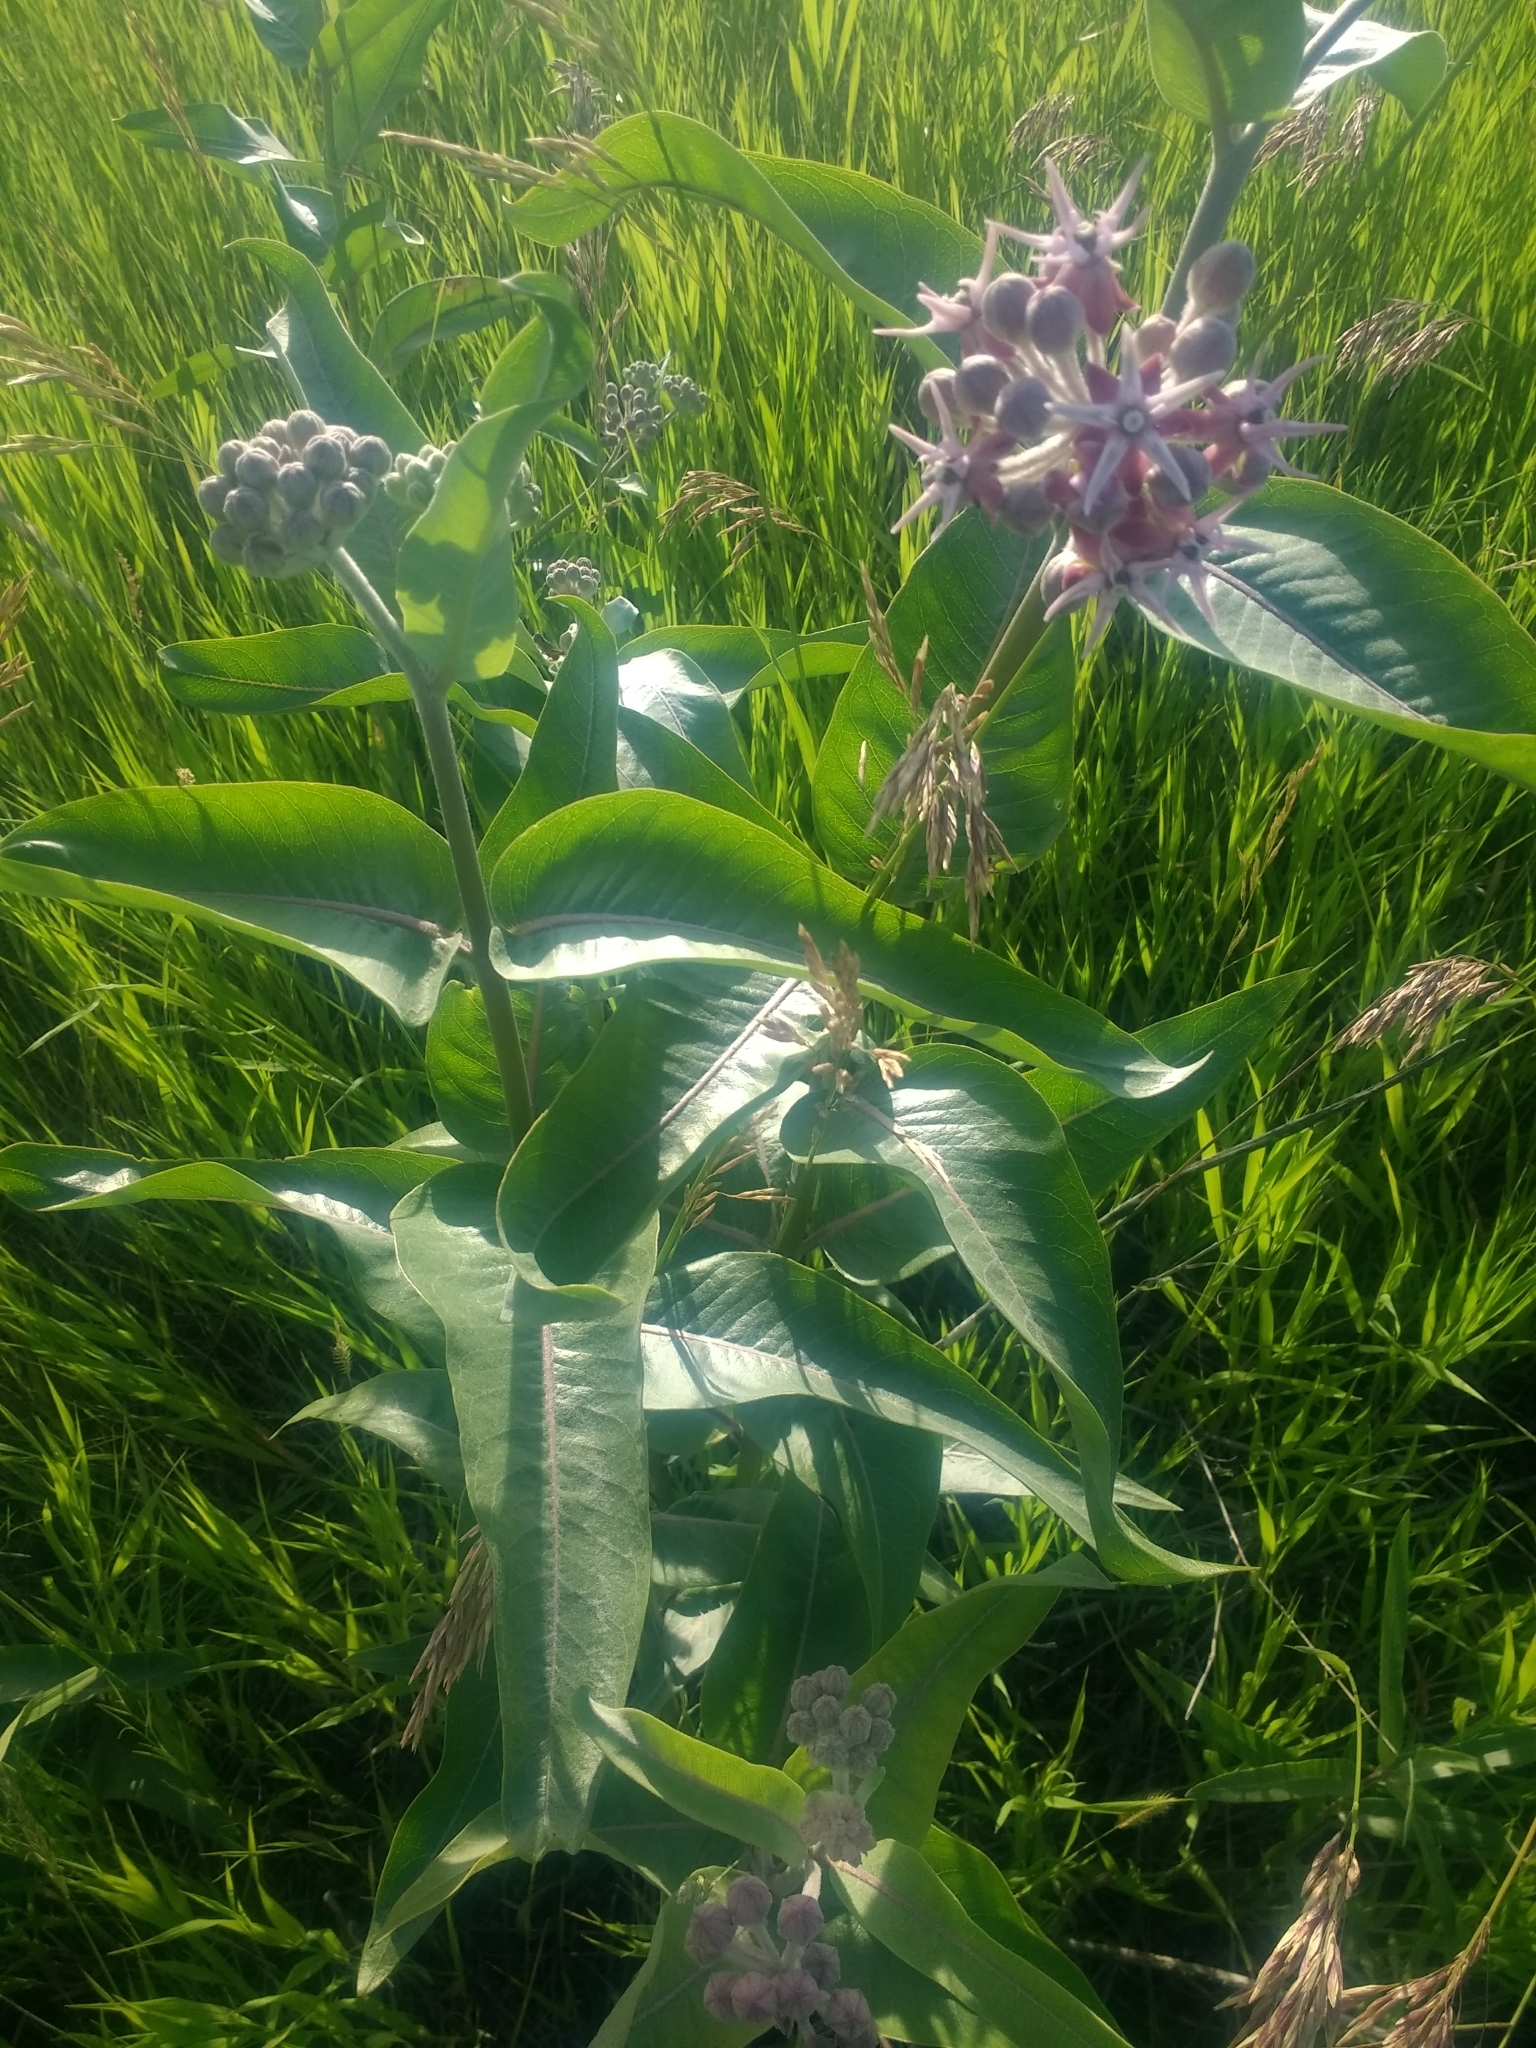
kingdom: Plantae
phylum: Tracheophyta
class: Magnoliopsida
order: Gentianales
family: Apocynaceae
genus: Asclepias
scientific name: Asclepias speciosa
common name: Showy milkweed
